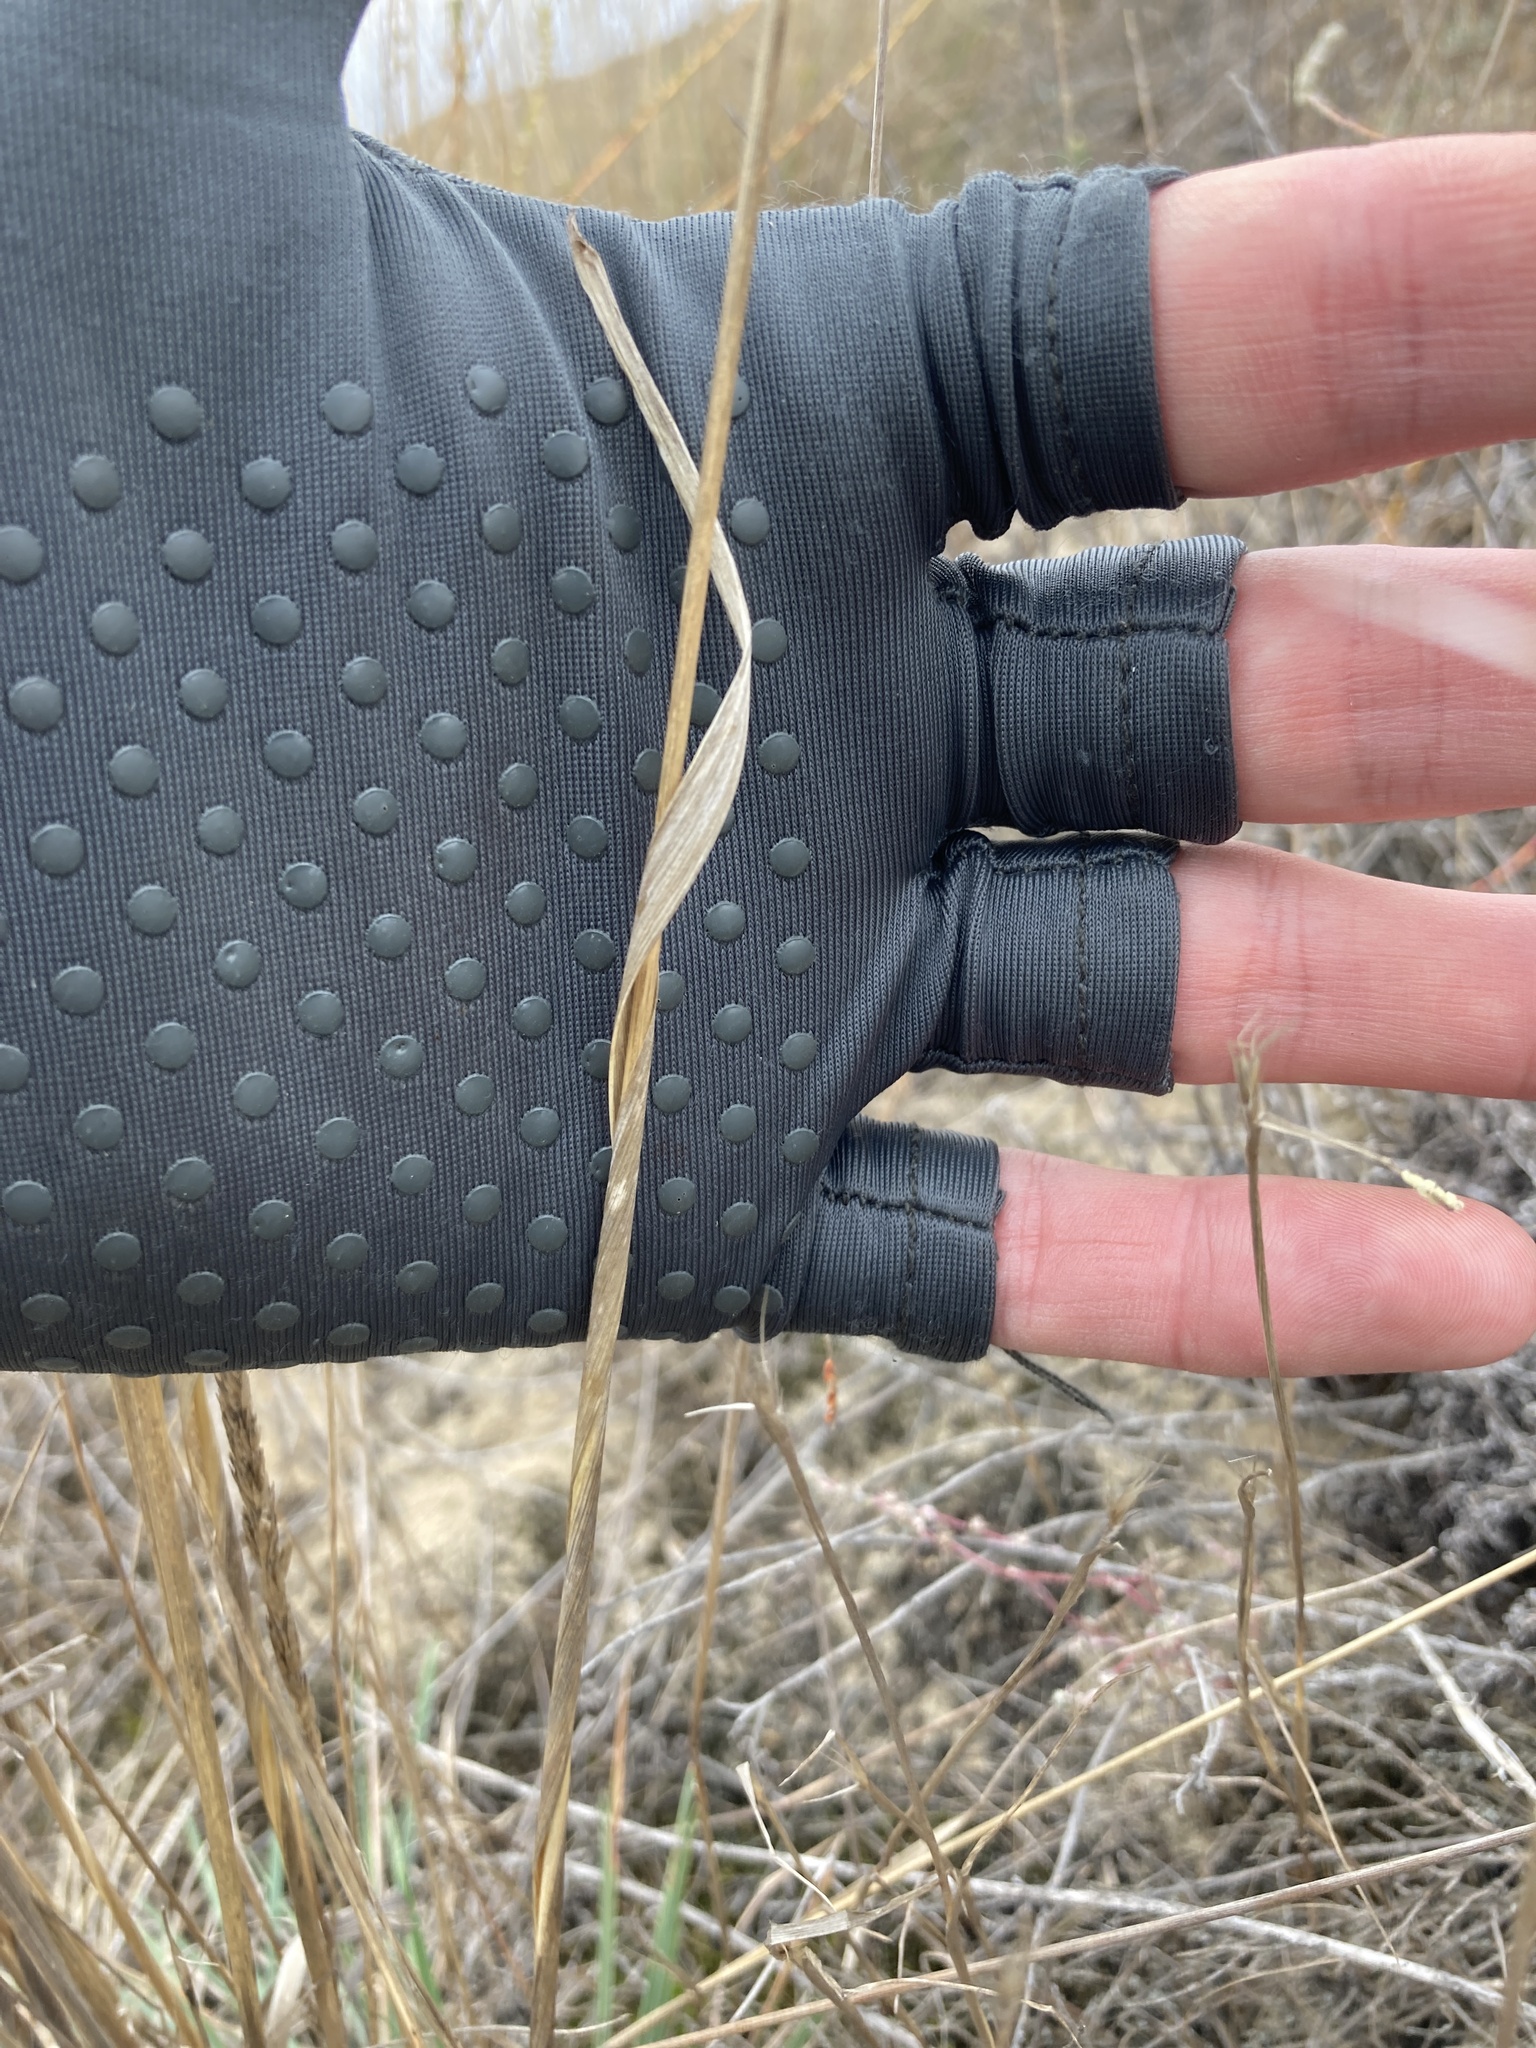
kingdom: Plantae
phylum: Tracheophyta
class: Liliopsida
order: Poales
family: Poaceae
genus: Koeleria
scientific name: Koeleria macrantha
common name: Crested hair-grass
